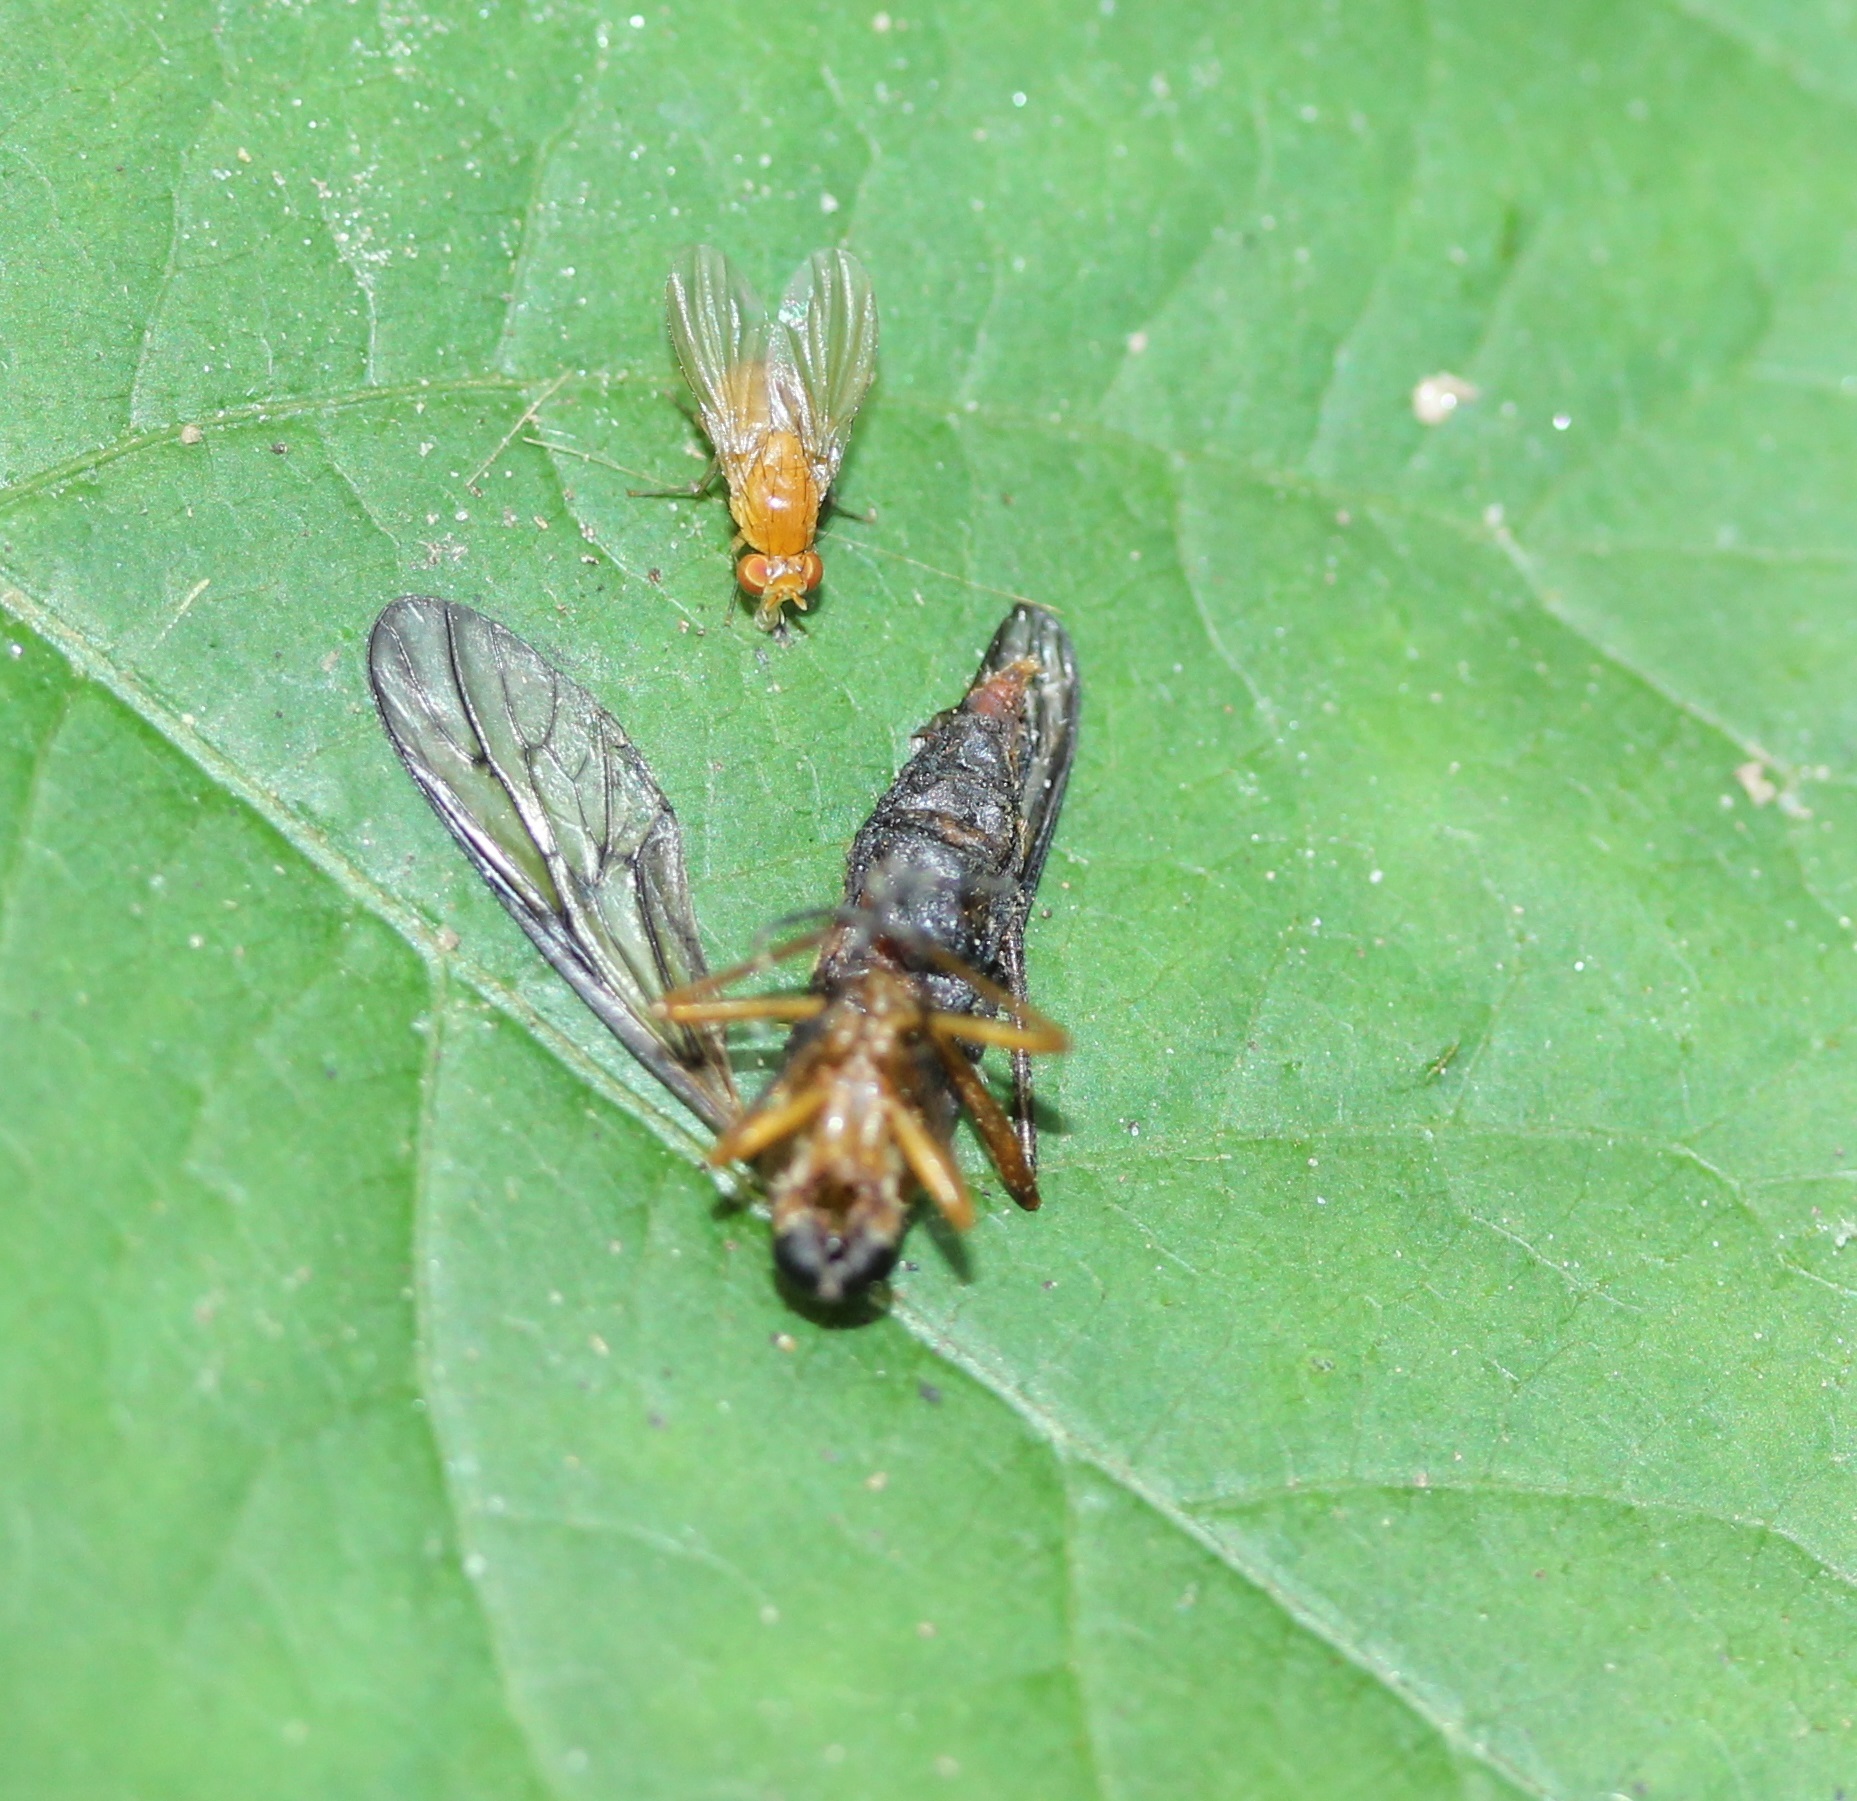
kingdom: Animalia
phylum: Arthropoda
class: Insecta
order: Diptera
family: Lauxaniidae
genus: Neogriphoneura
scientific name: Neogriphoneura sordida
